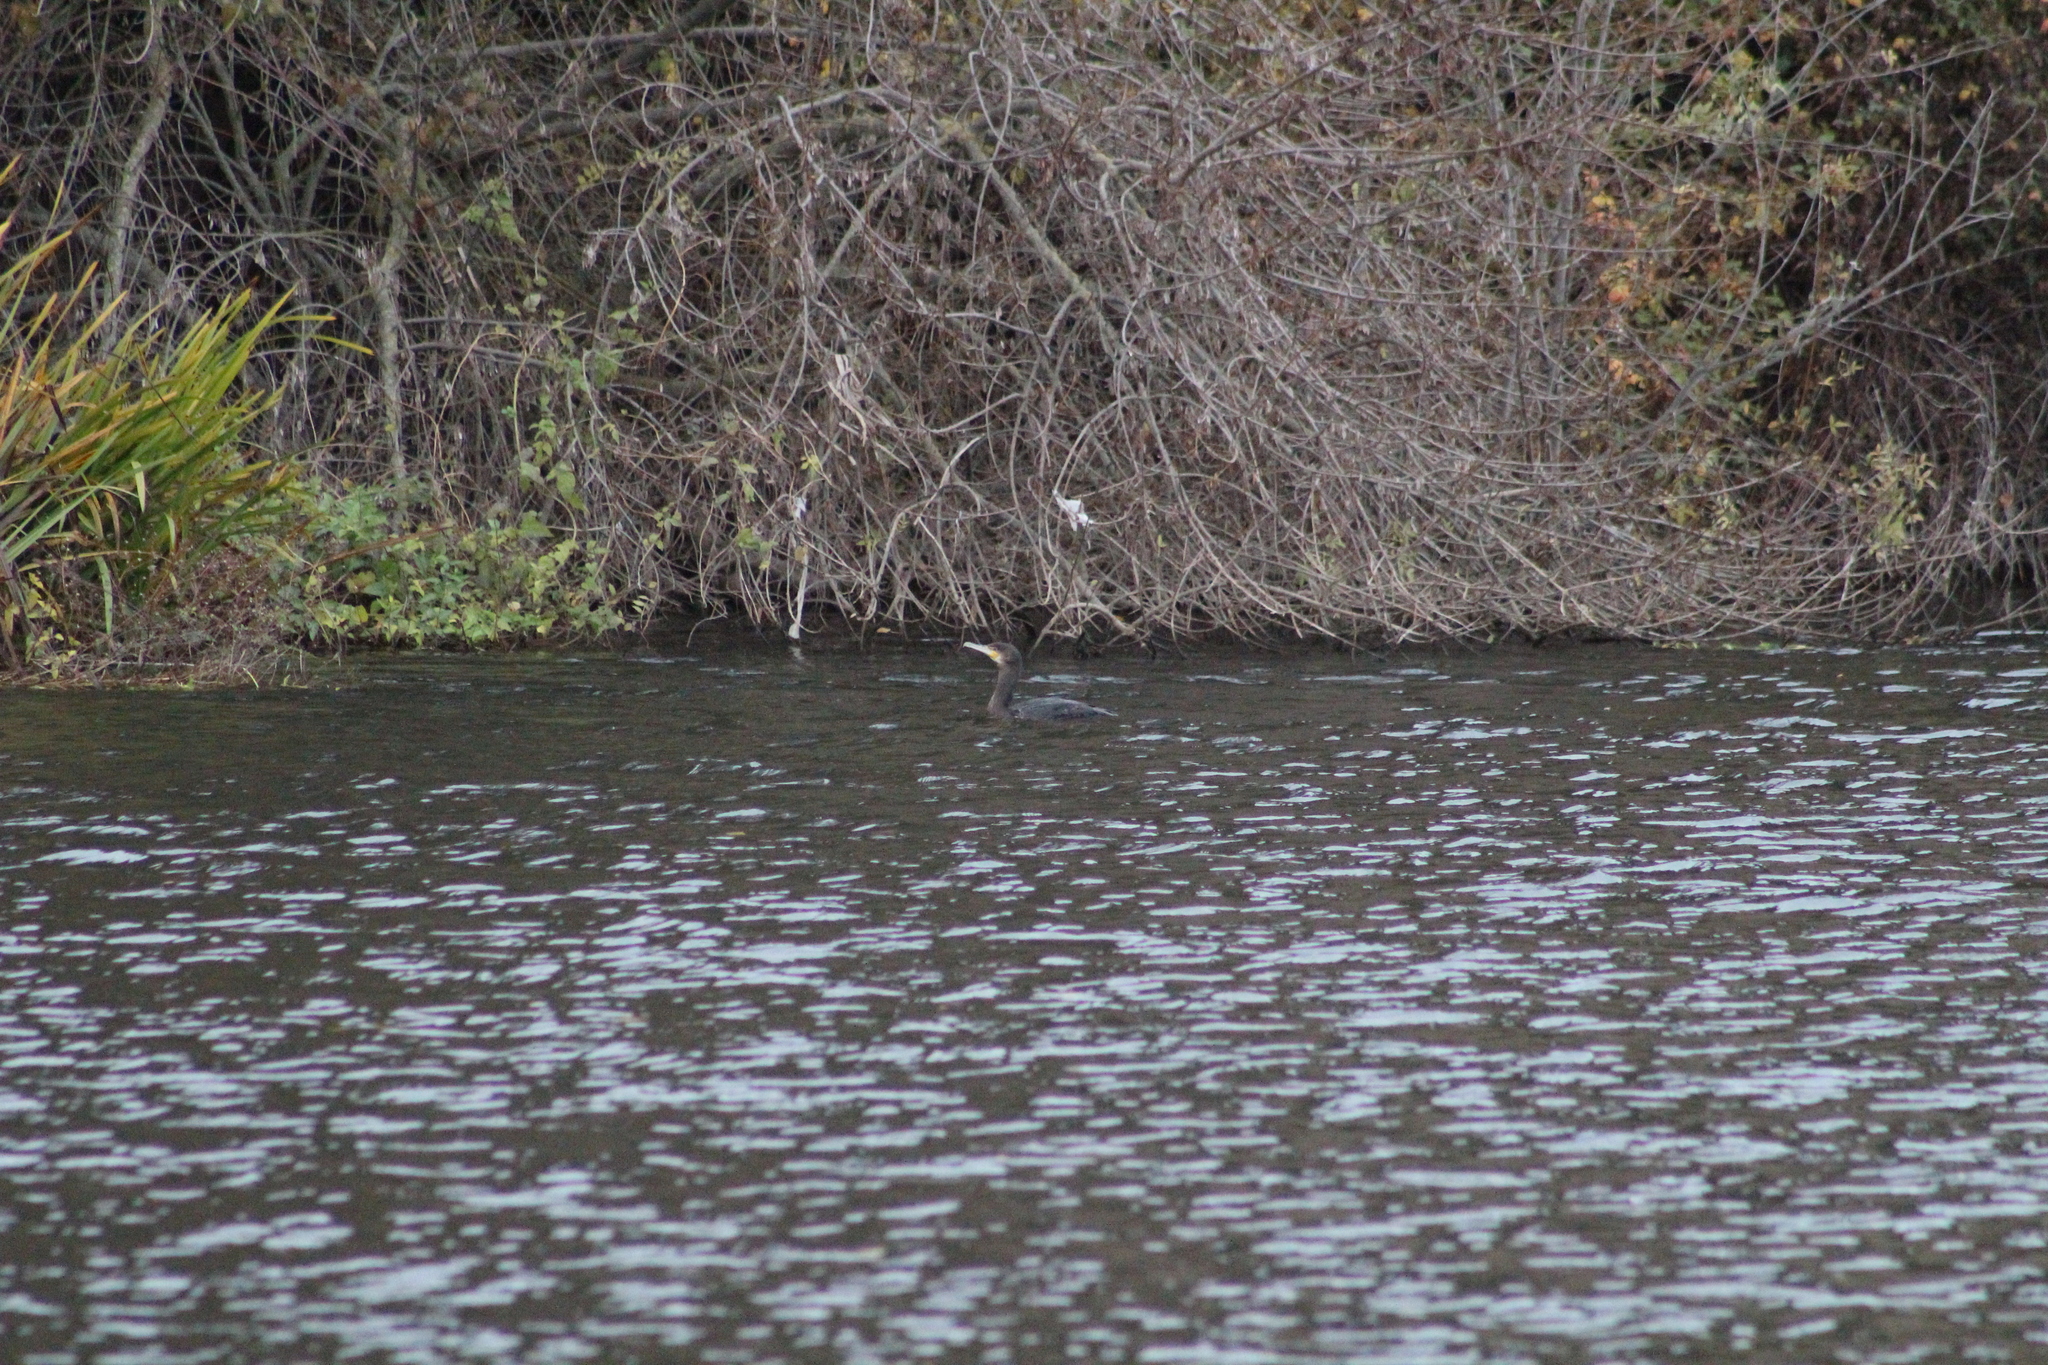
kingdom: Animalia
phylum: Chordata
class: Aves
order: Suliformes
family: Phalacrocoracidae
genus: Phalacrocorax
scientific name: Phalacrocorax carbo
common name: Great cormorant
